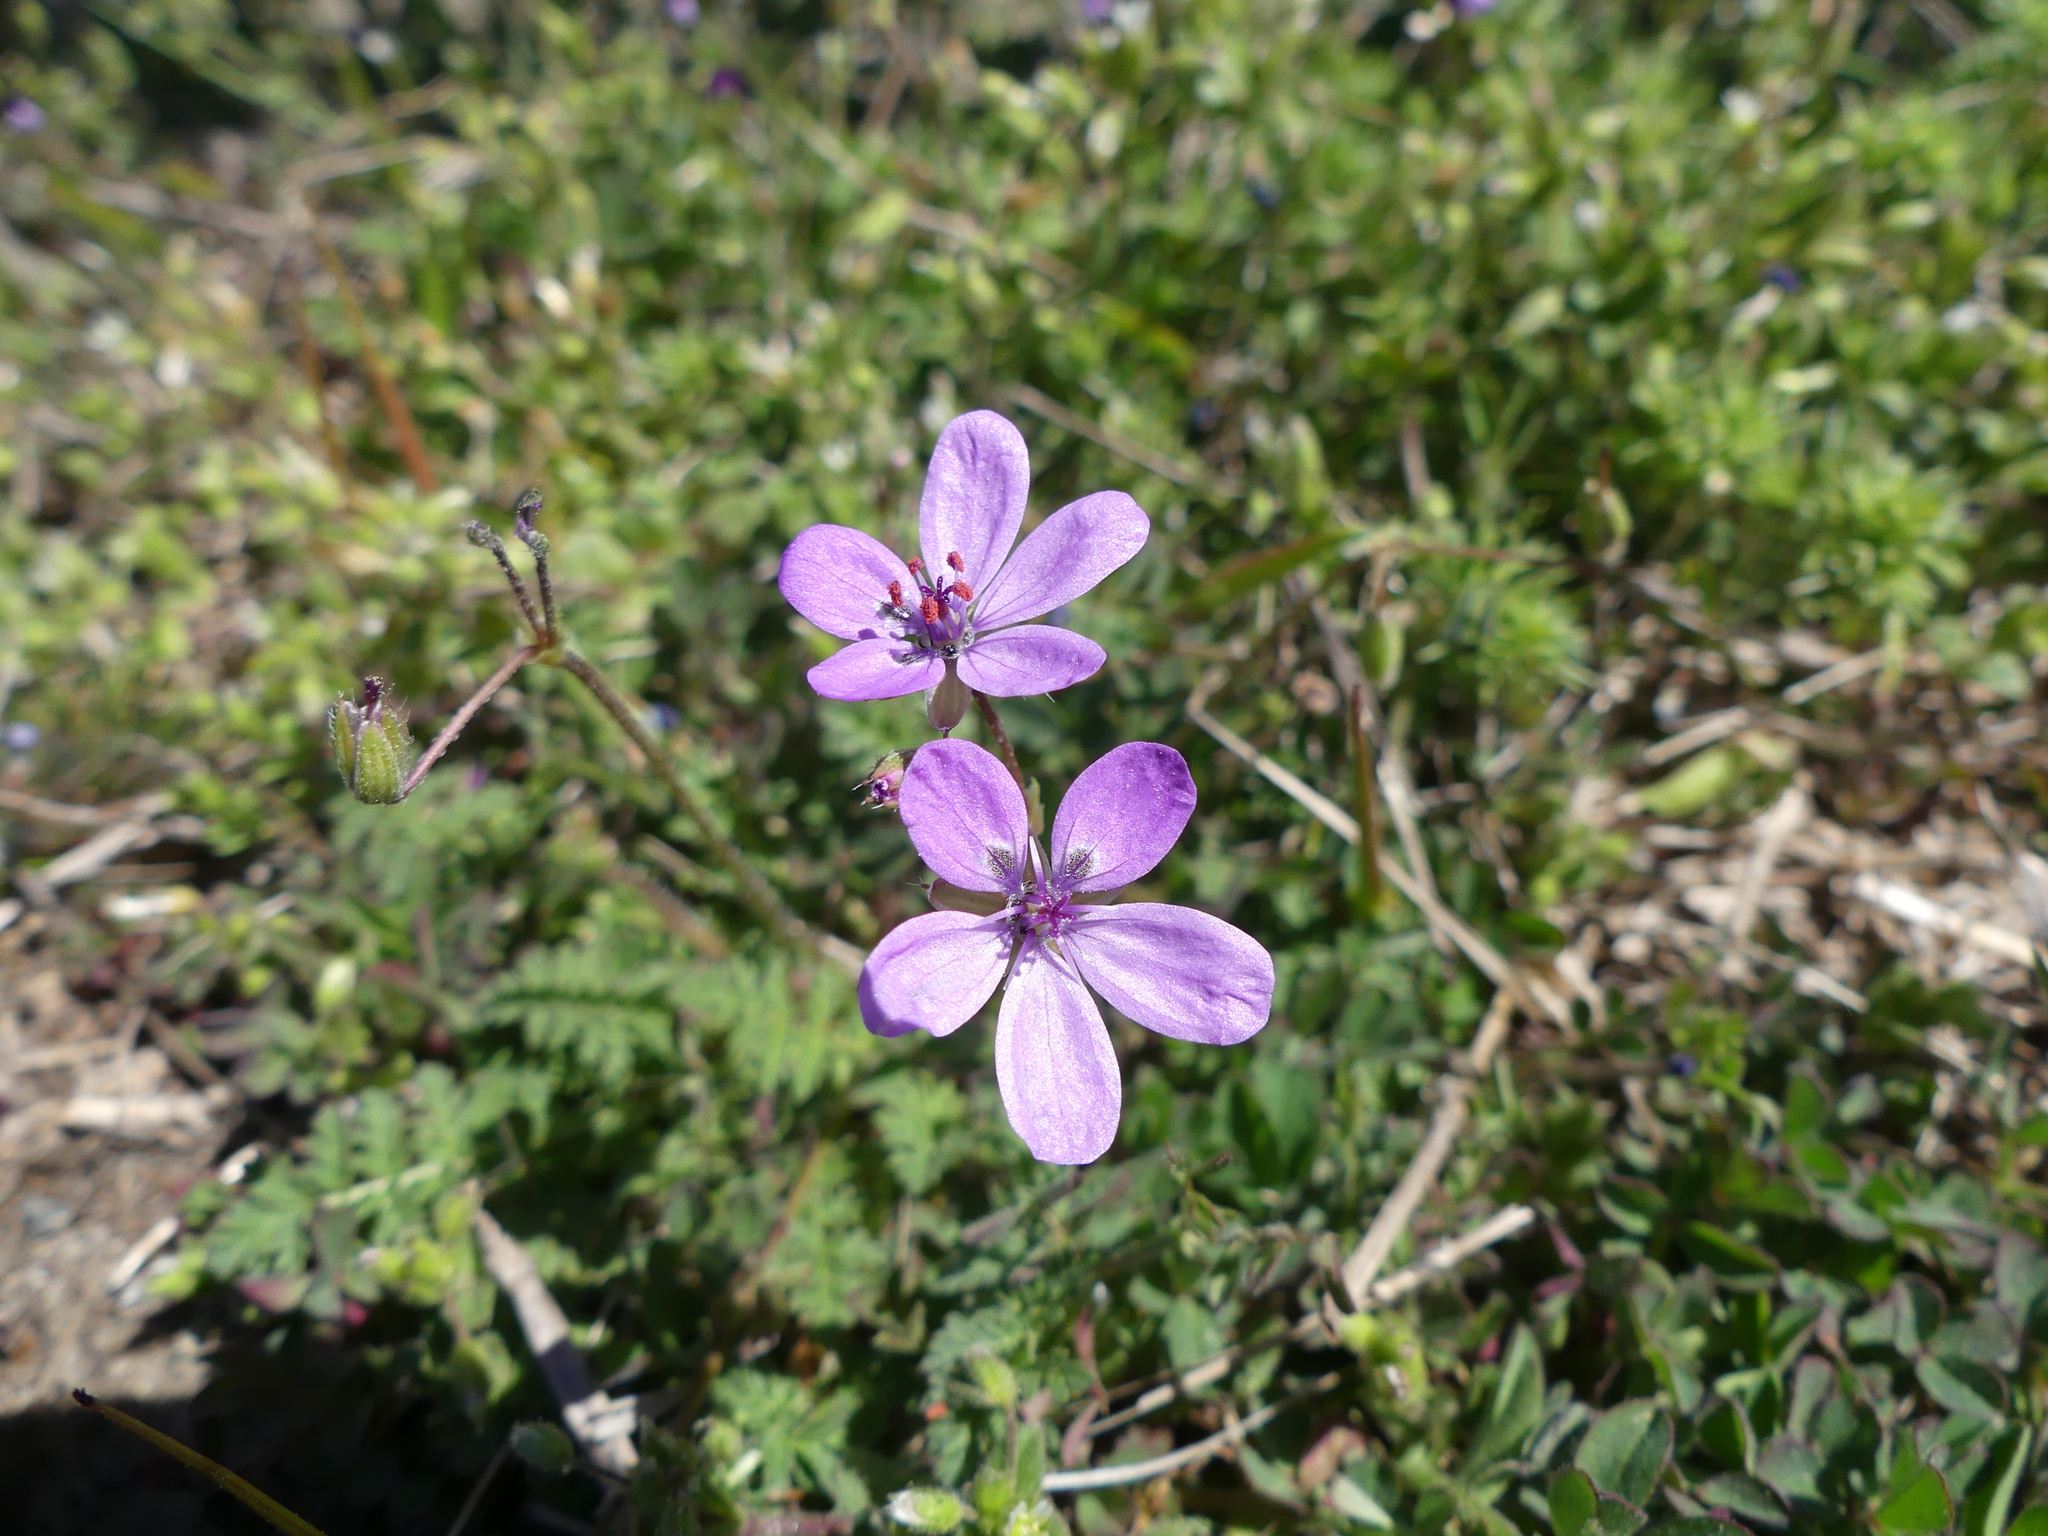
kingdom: Plantae
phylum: Tracheophyta
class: Magnoliopsida
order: Geraniales
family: Geraniaceae
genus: Erodium
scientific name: Erodium cicutarium
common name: Common stork's-bill
